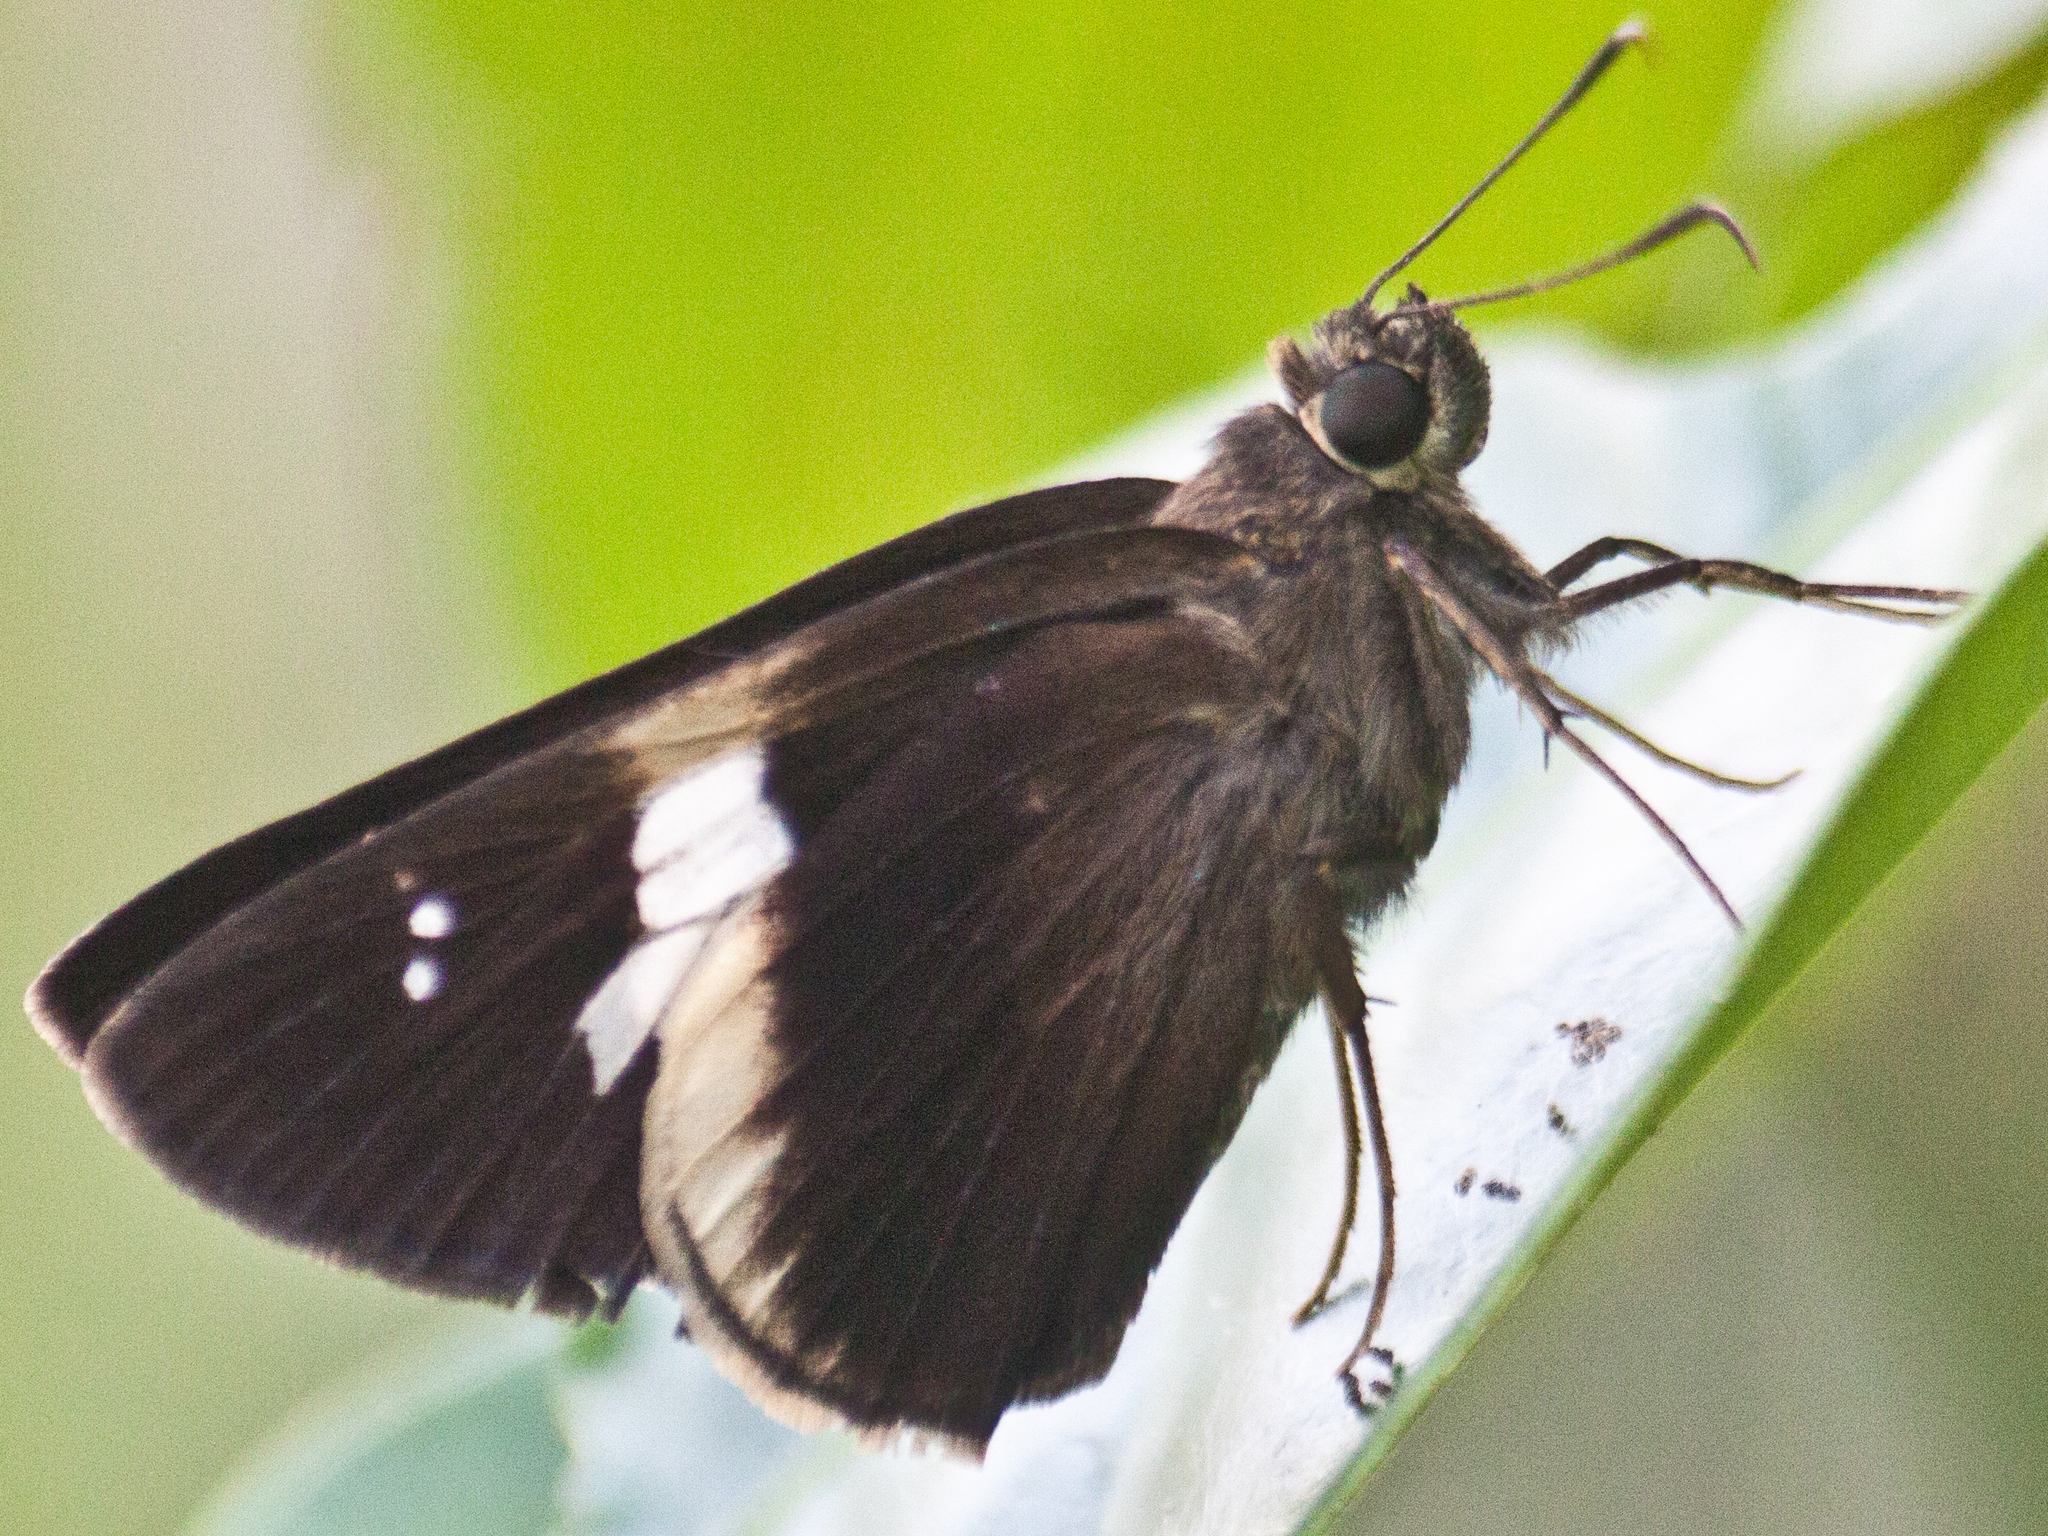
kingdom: Animalia
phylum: Arthropoda
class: Insecta
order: Lepidoptera
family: Hesperiidae
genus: Lotongus
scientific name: Lotongus calathus
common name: White-tipped palmer
